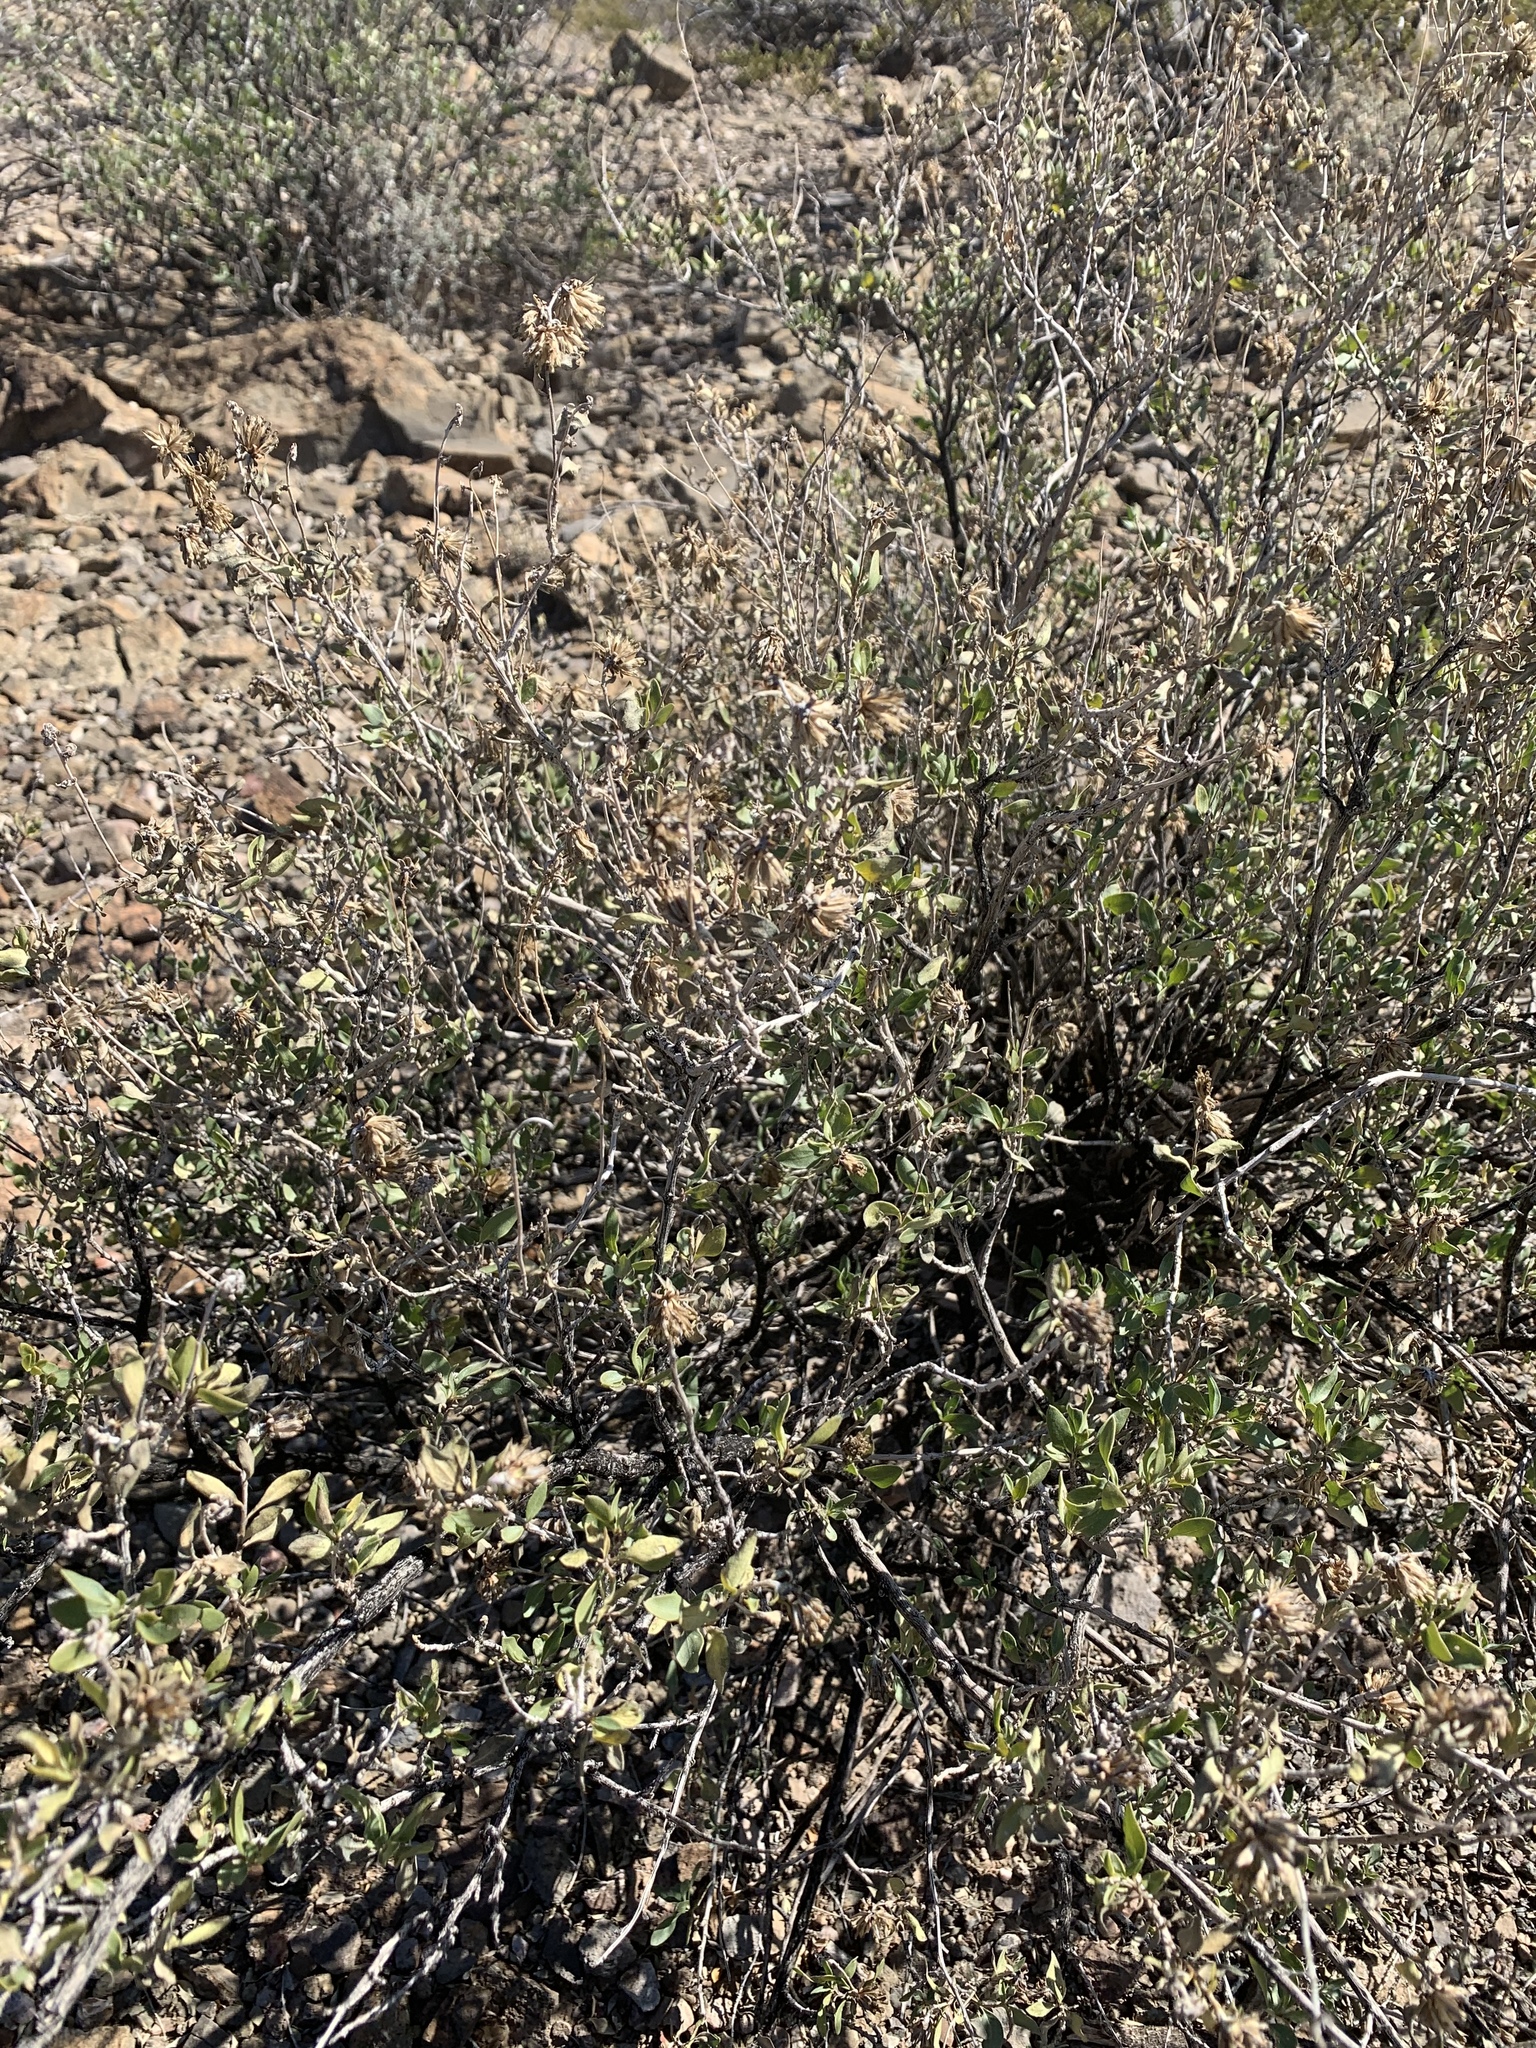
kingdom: Plantae
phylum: Tracheophyta
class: Magnoliopsida
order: Asterales
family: Asteraceae
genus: Flourensia
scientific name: Flourensia cernua
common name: Varnishbush
